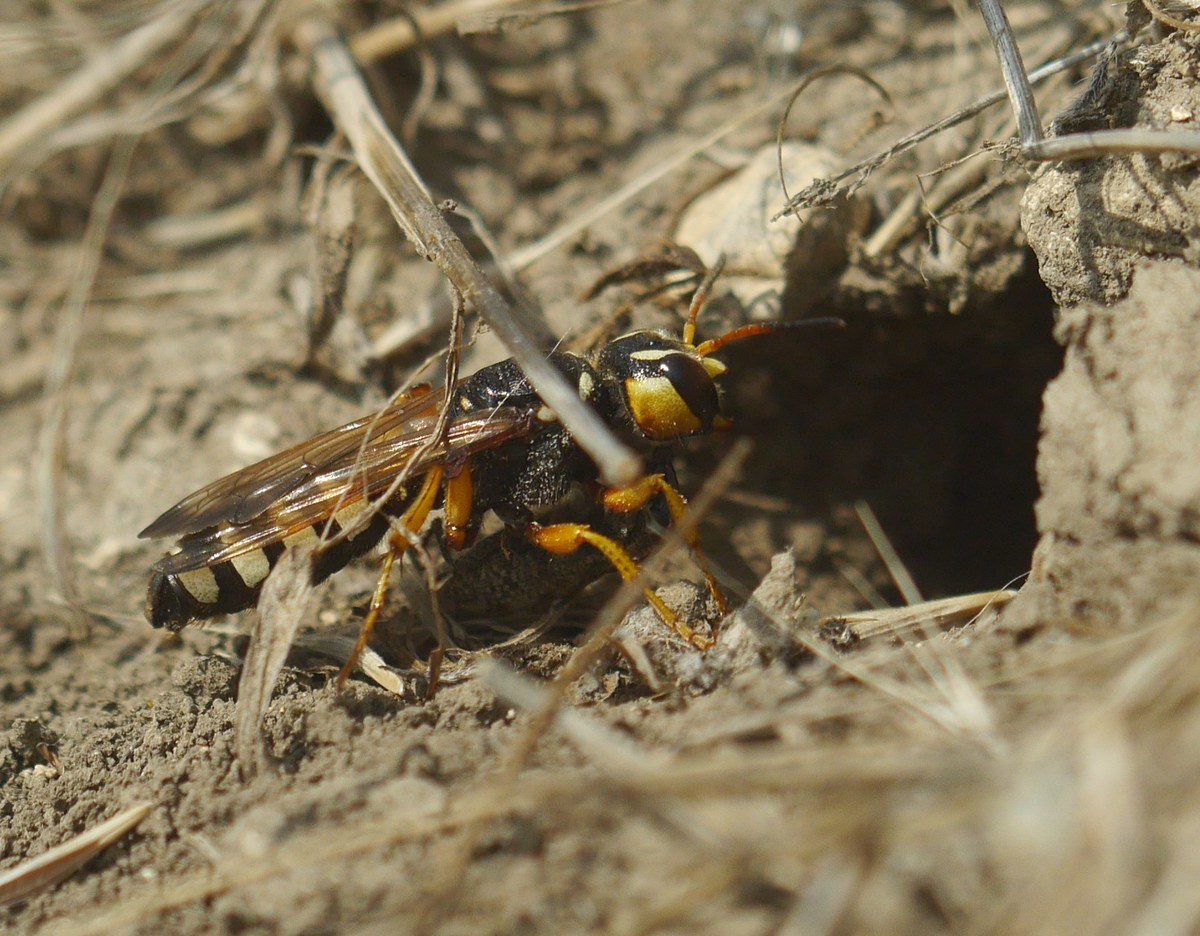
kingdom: Animalia
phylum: Arthropoda
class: Insecta
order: Hymenoptera
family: Crabronidae
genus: Cerceris
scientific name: Cerceris tuberculata
